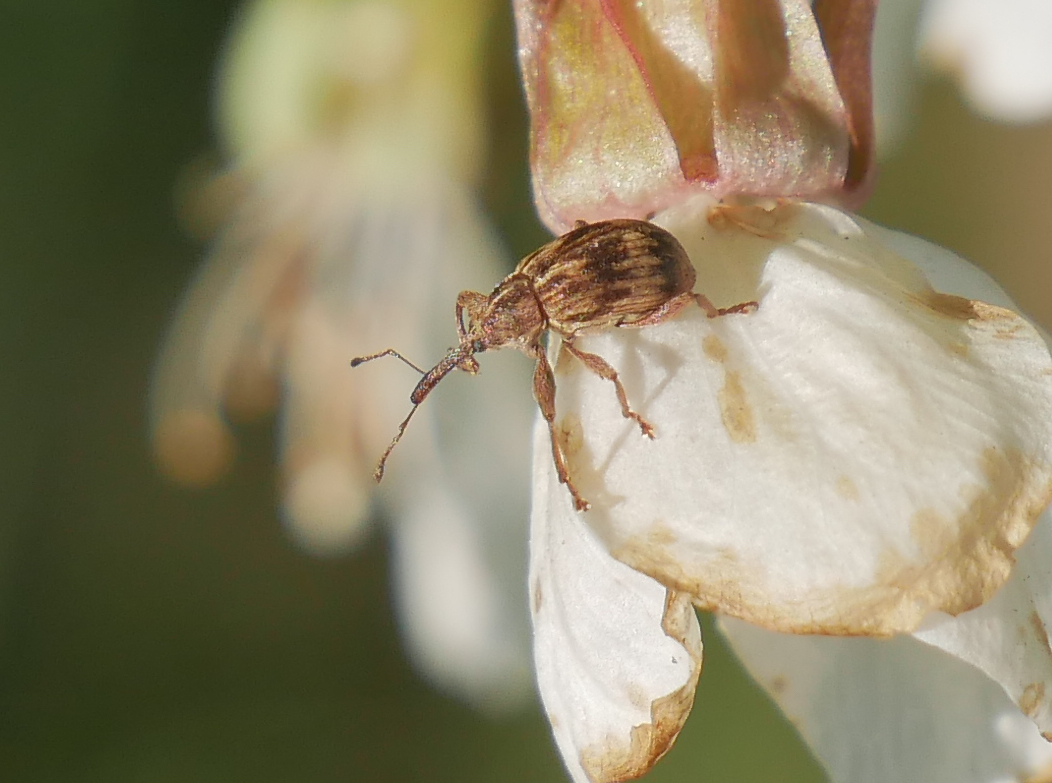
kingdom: Animalia
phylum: Arthropoda
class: Insecta
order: Coleoptera
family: Curculionidae
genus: Anthonomus
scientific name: Anthonomus rectirostris
